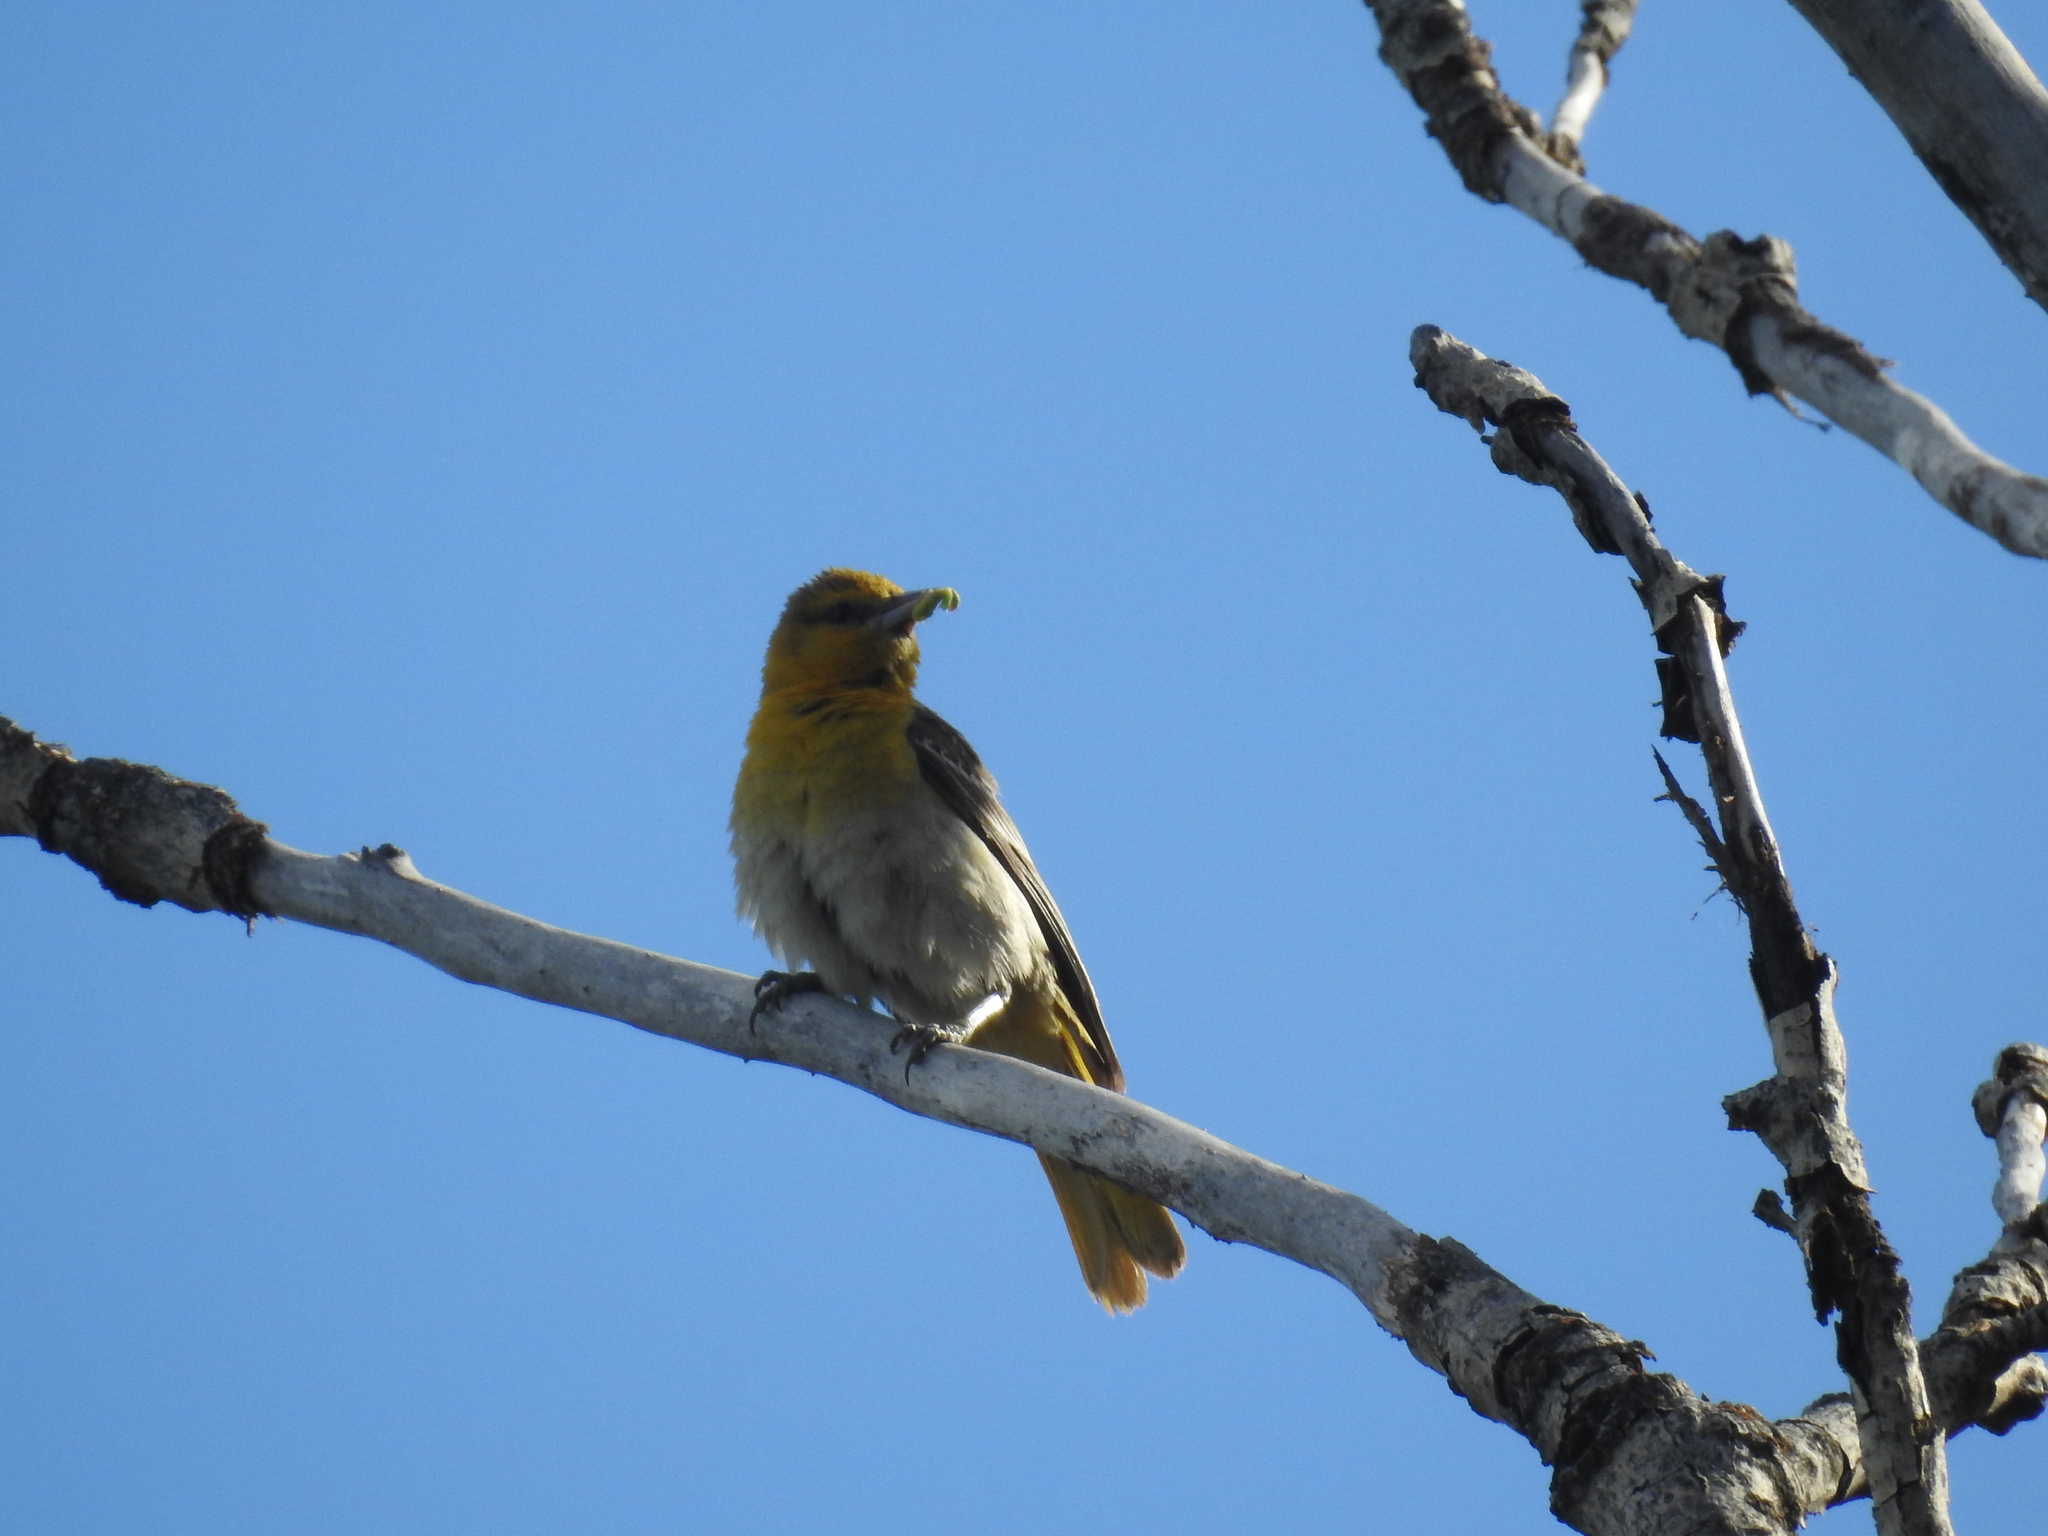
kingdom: Animalia
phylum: Chordata
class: Aves
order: Passeriformes
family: Icteridae
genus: Icterus
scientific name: Icterus bullockii
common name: Bullock's oriole
